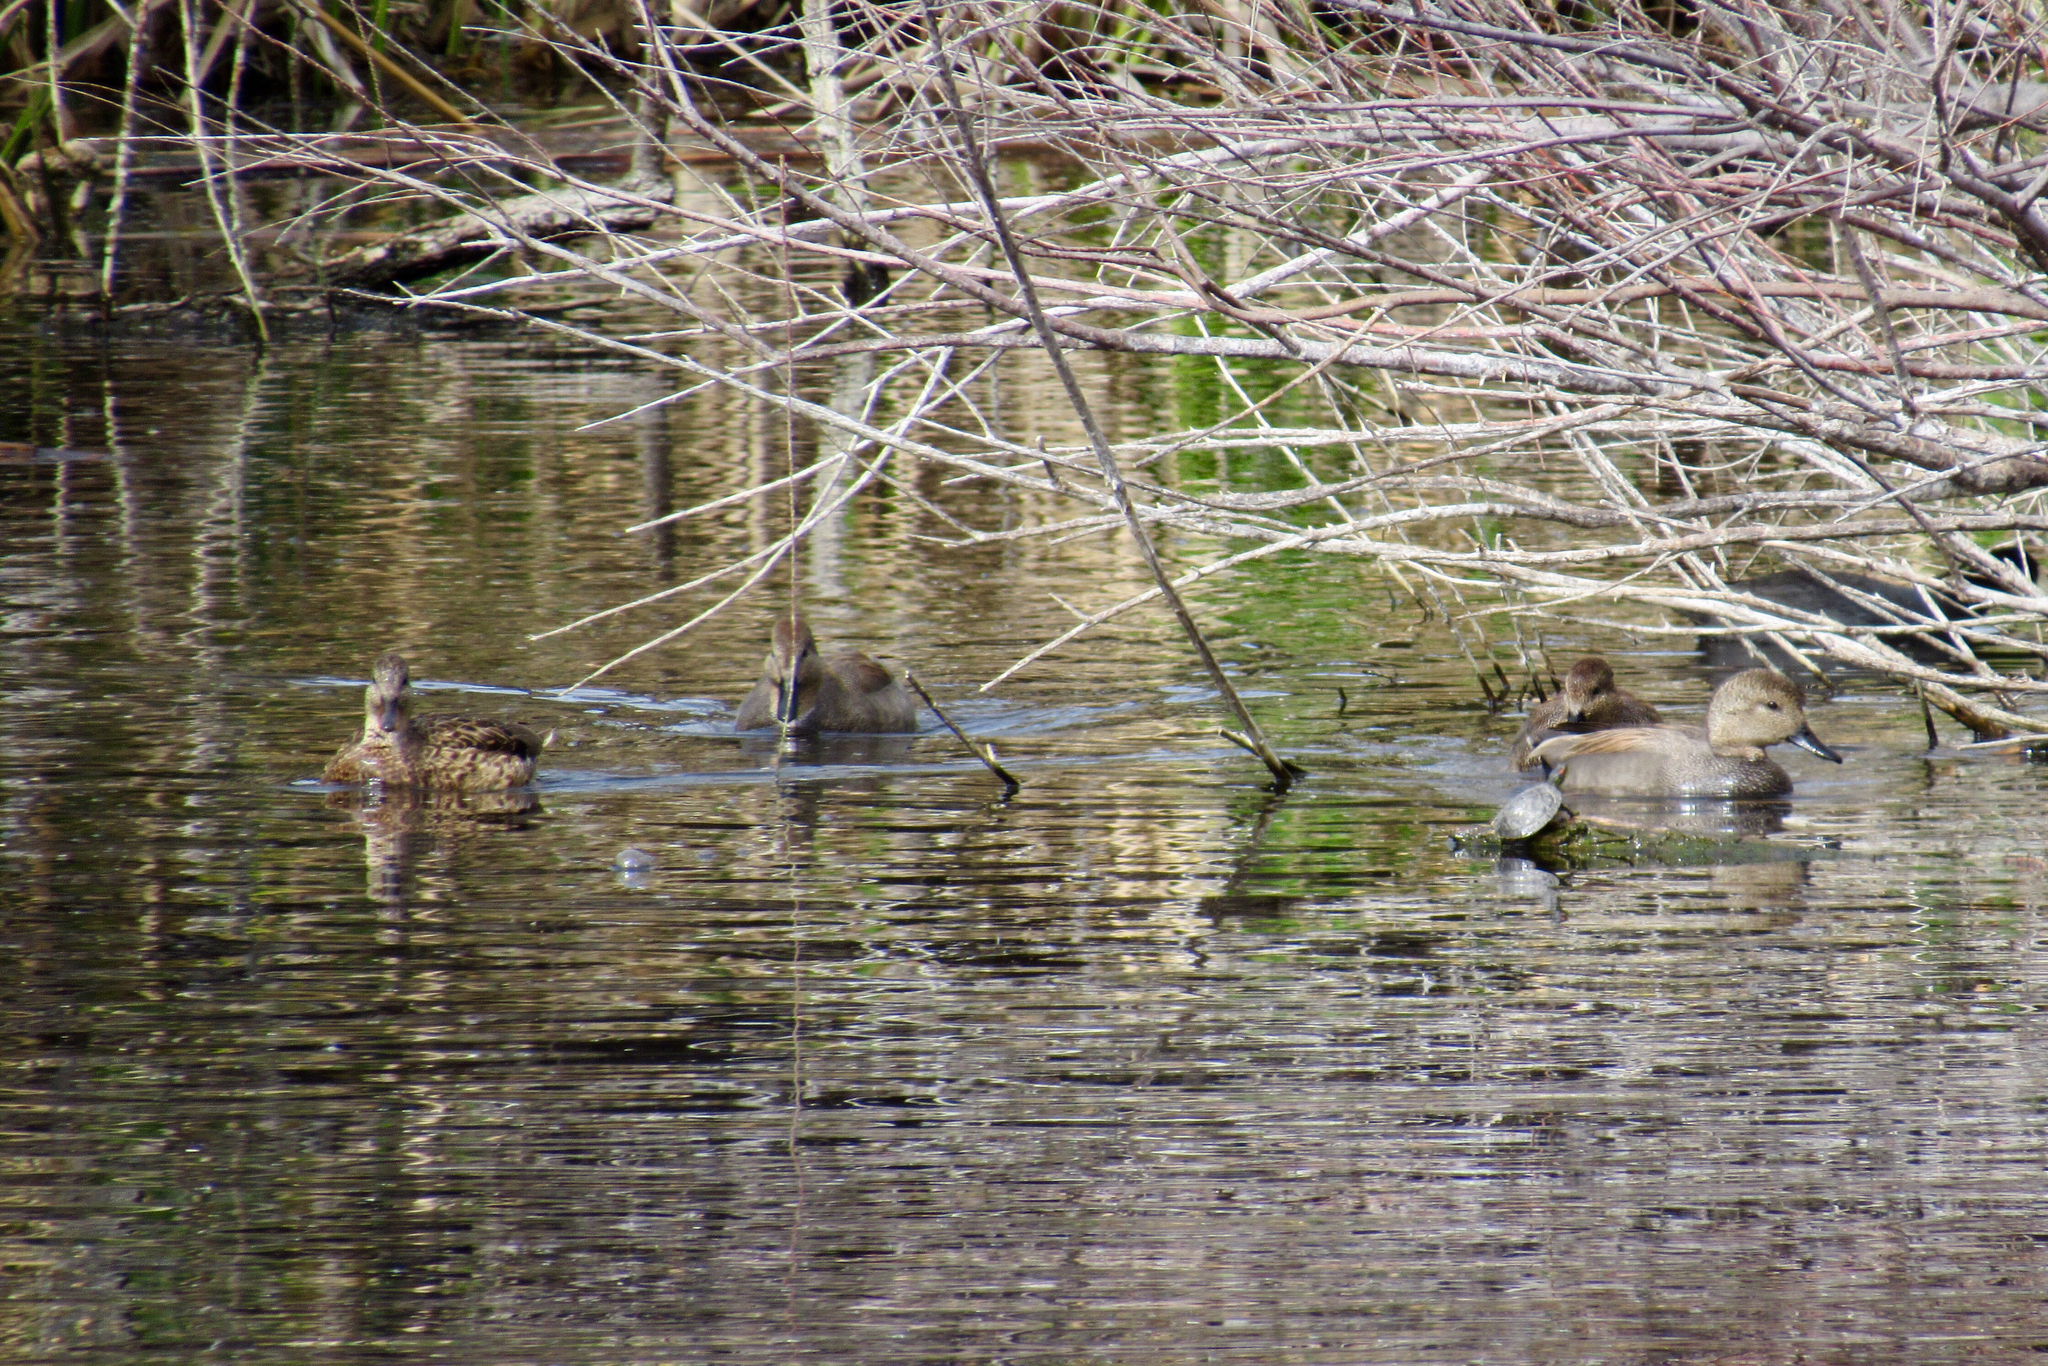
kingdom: Animalia
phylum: Chordata
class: Aves
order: Anseriformes
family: Anatidae
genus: Mareca
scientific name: Mareca strepera
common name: Gadwall
